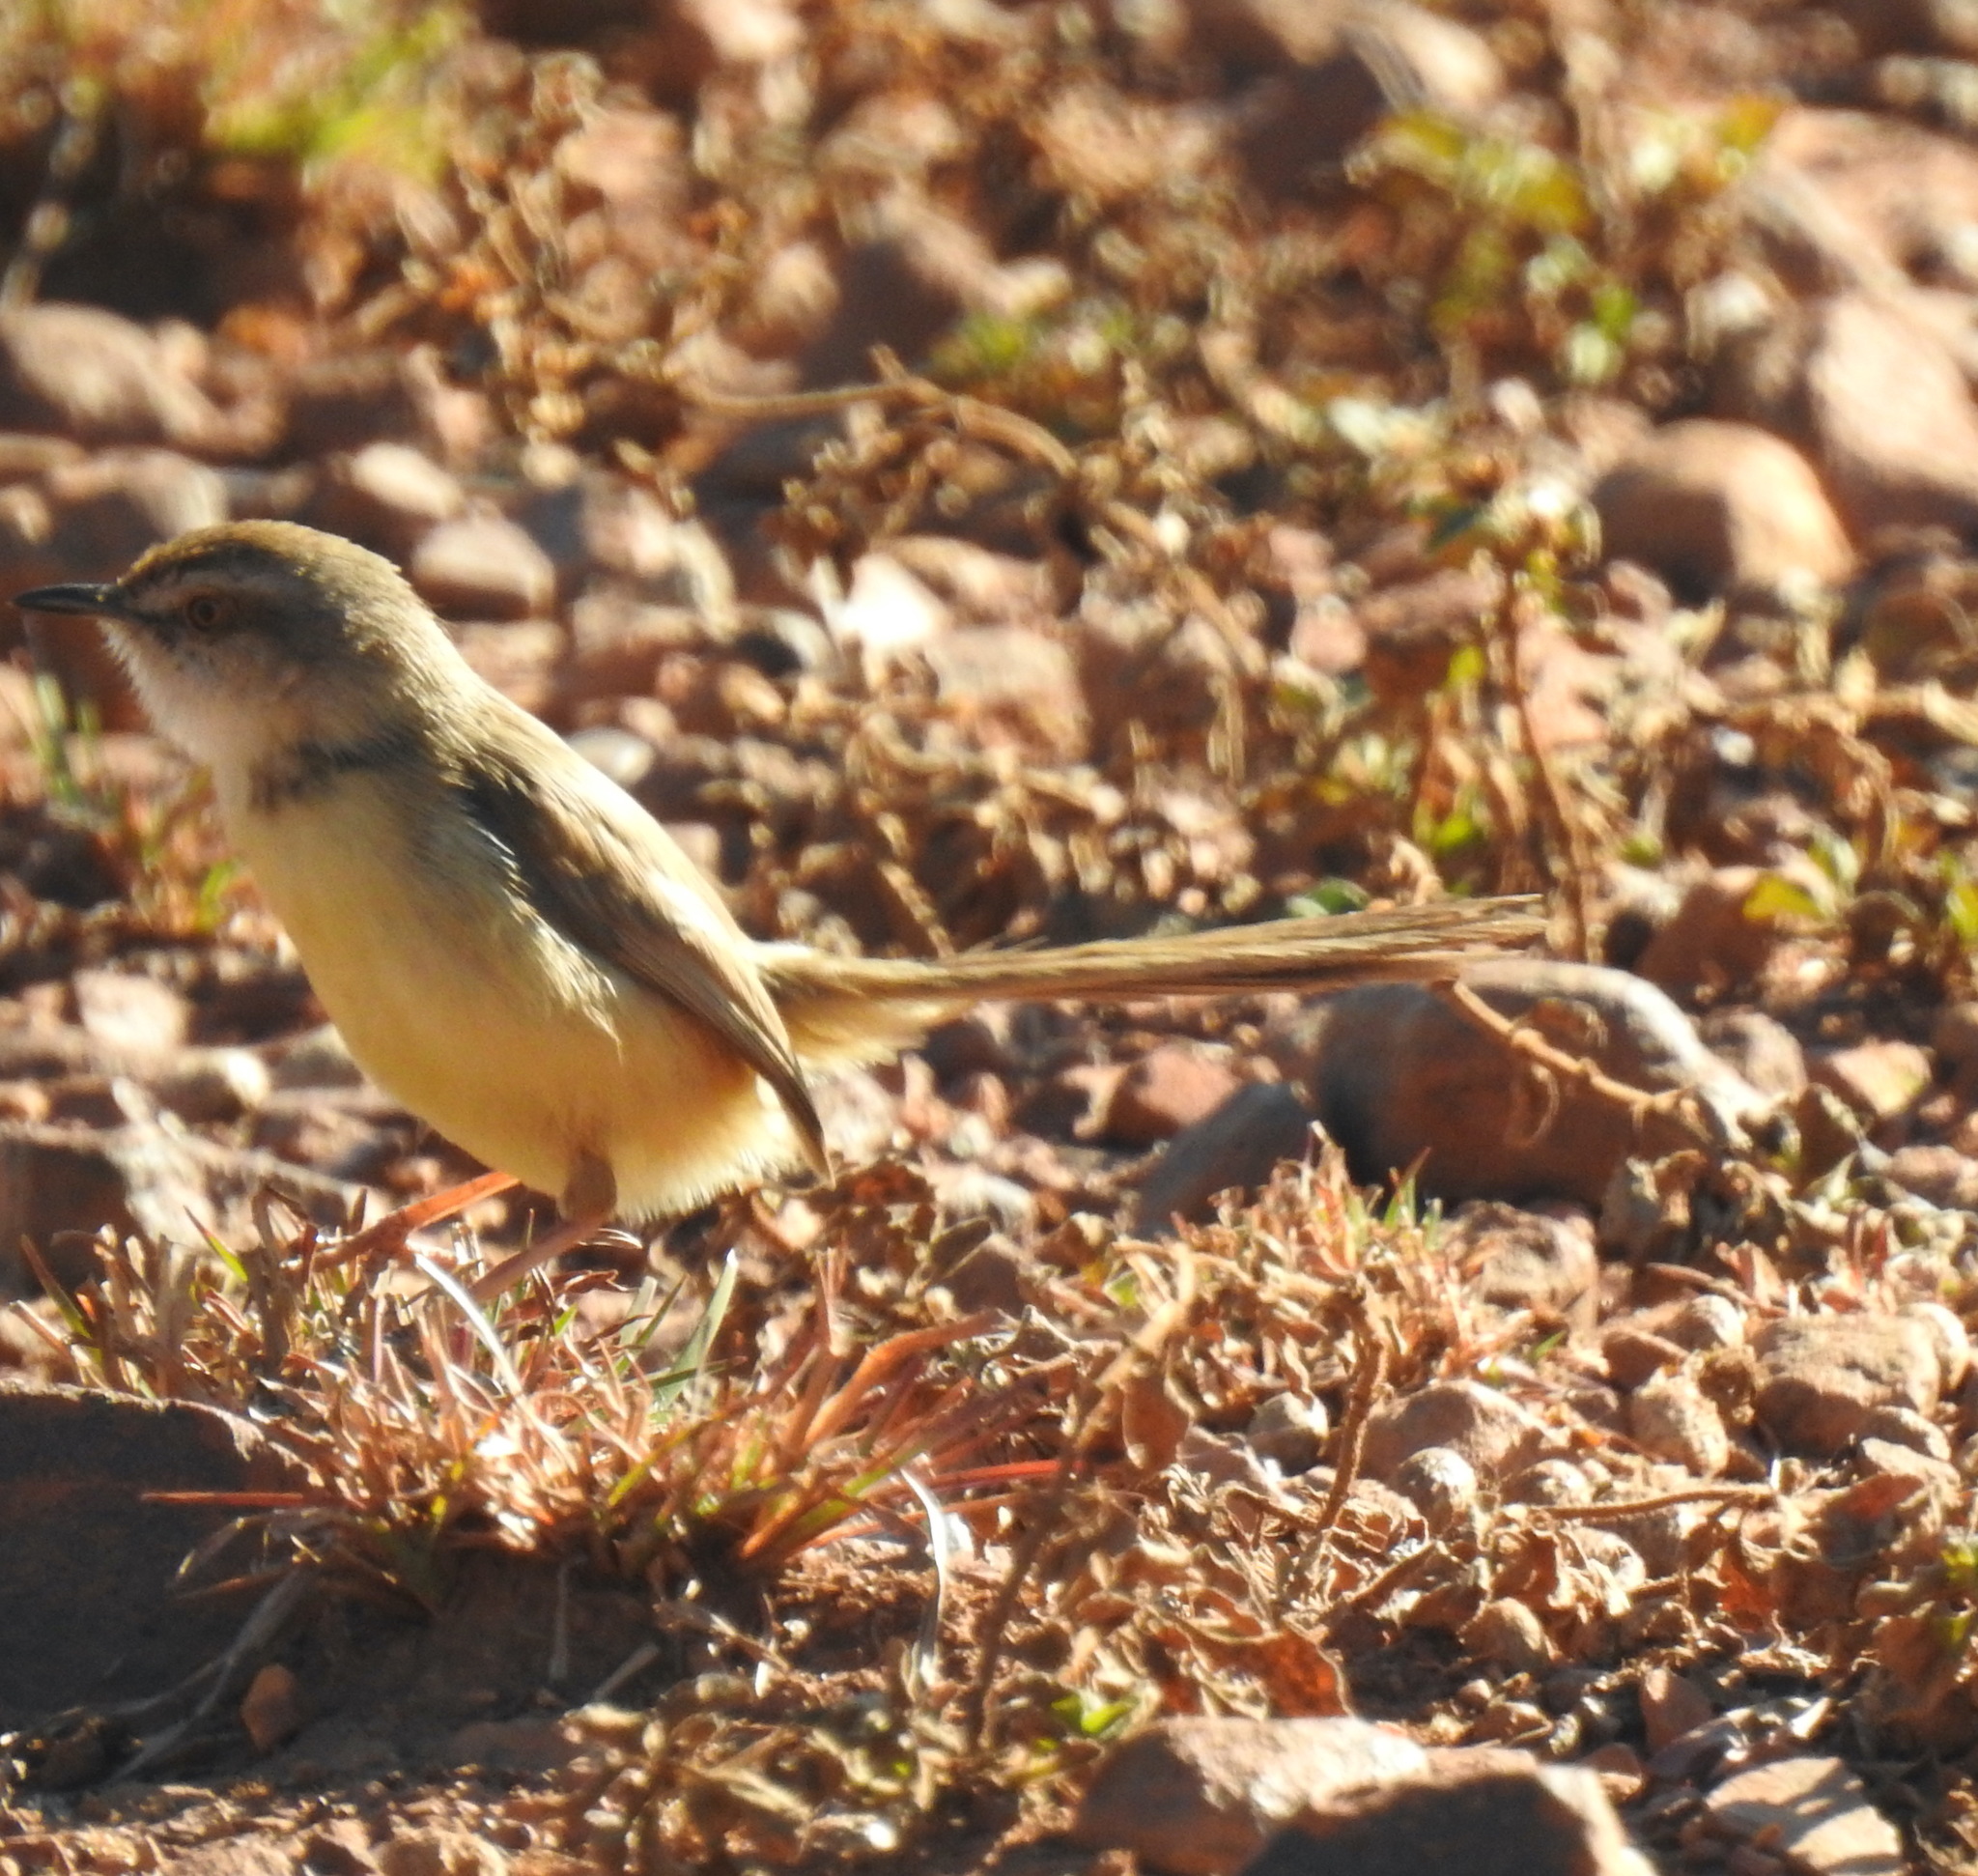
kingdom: Animalia
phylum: Chordata
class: Aves
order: Passeriformes
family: Cisticolidae
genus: Prinia
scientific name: Prinia flavicans
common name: Black-chested prinia
